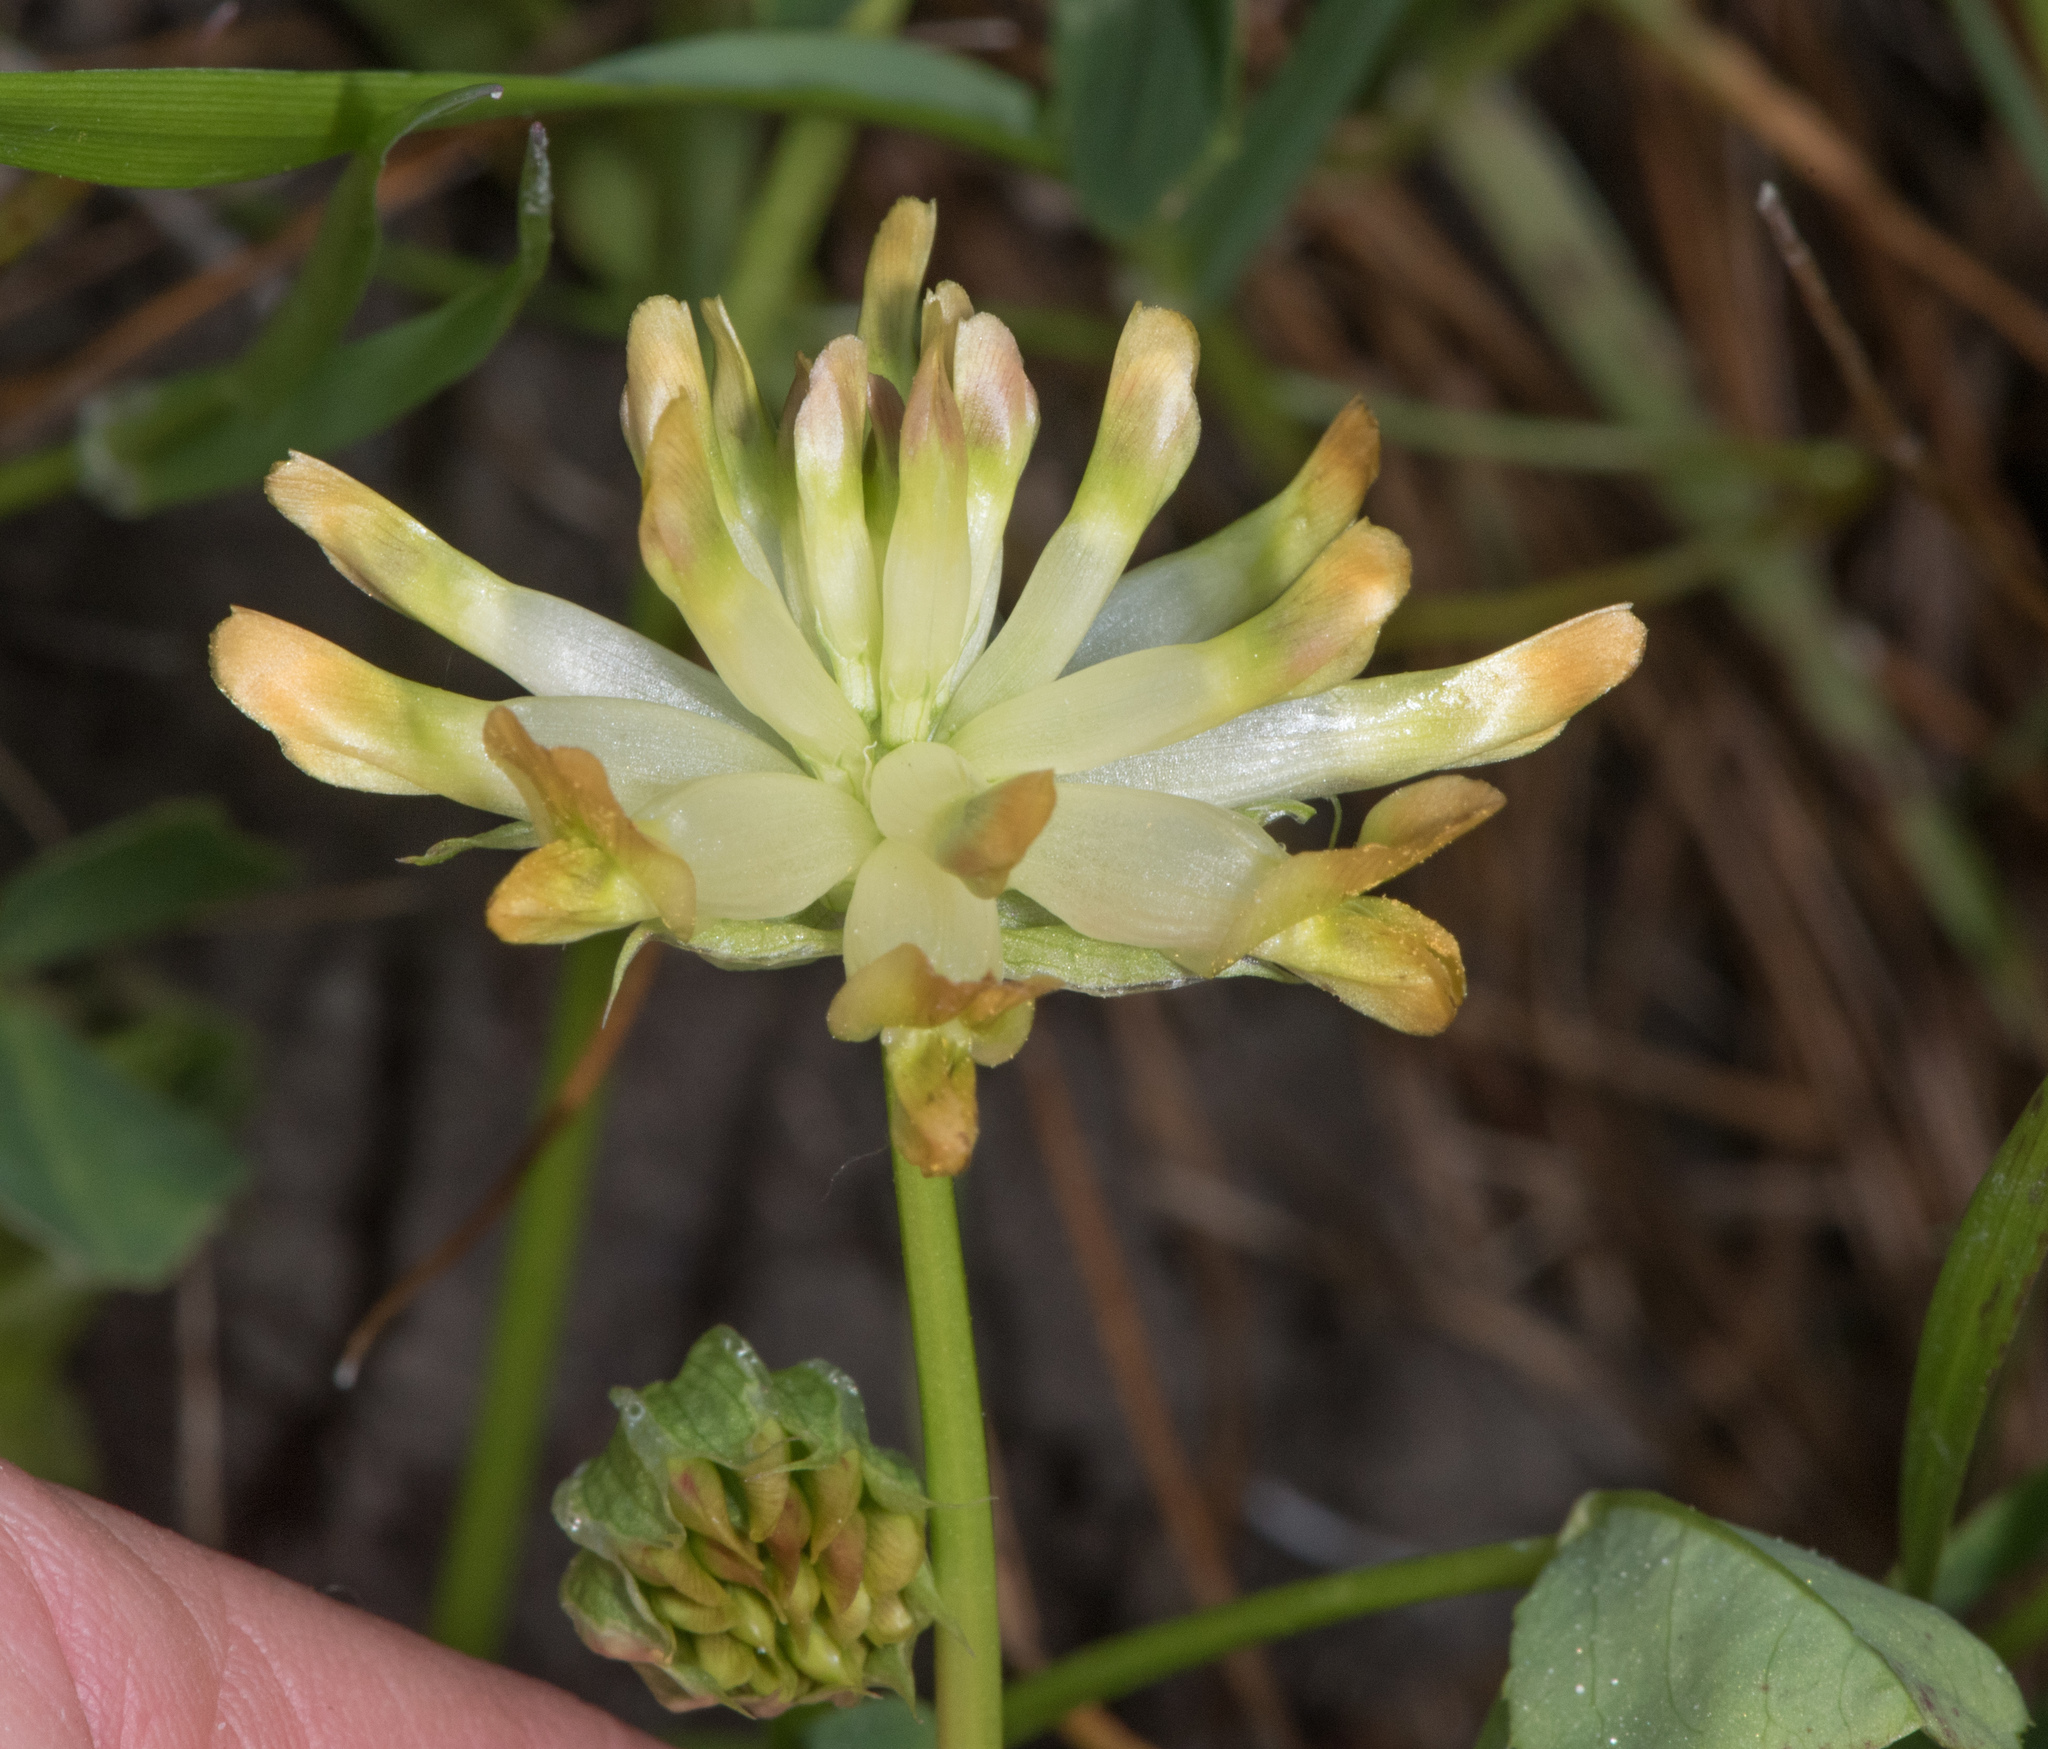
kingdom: Plantae
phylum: Tracheophyta
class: Magnoliopsida
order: Fabales
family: Fabaceae
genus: Trifolium
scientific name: Trifolium fucatum
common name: Puff clover
